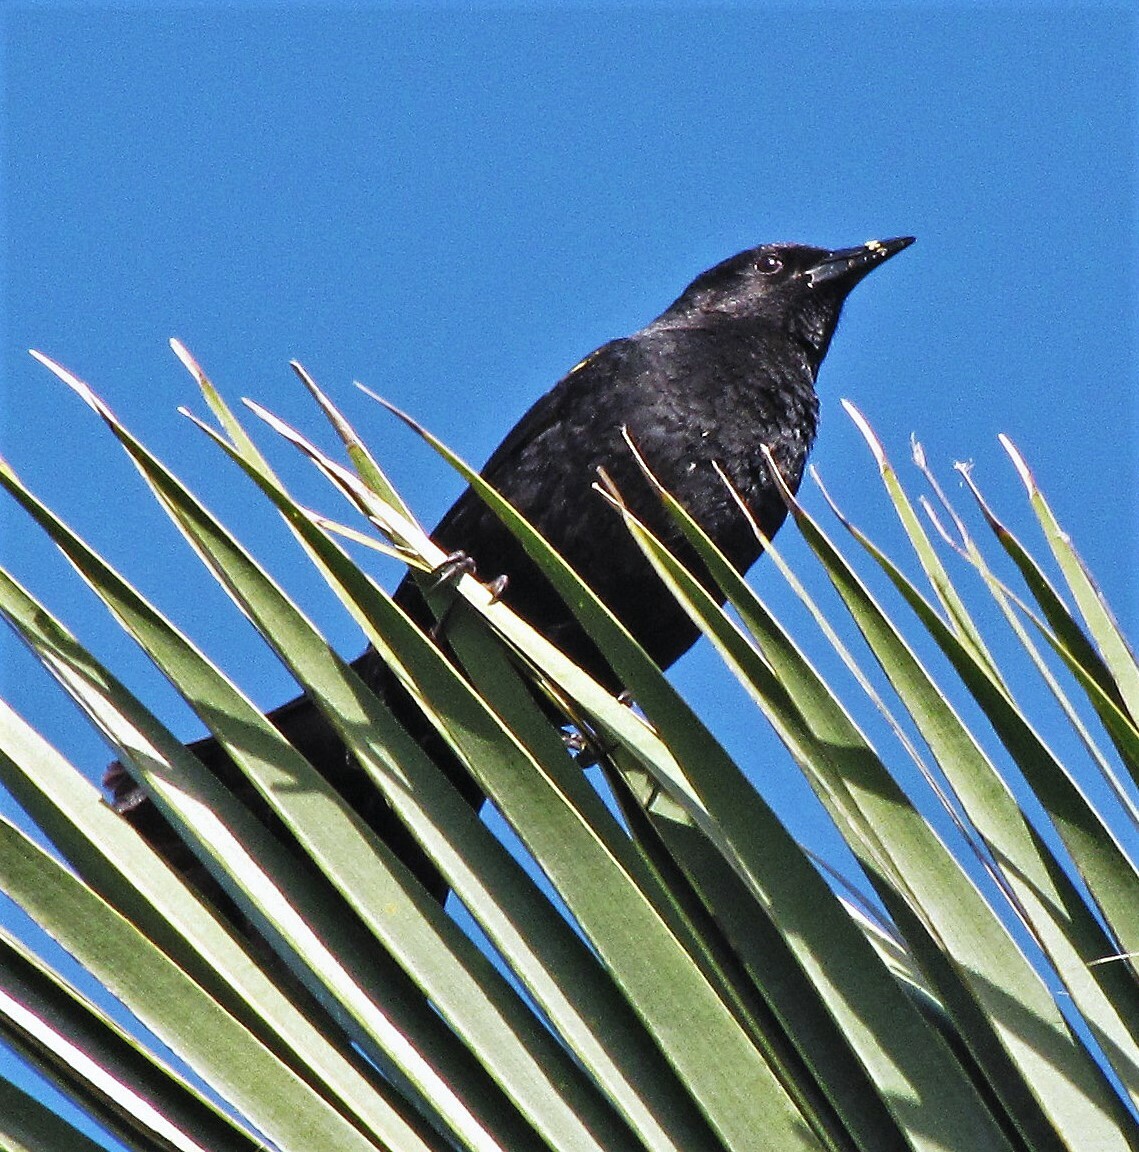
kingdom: Animalia
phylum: Chordata
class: Aves
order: Passeriformes
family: Icteridae
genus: Agelasticus
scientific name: Agelasticus thilius
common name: Yellow-winged blackbird
